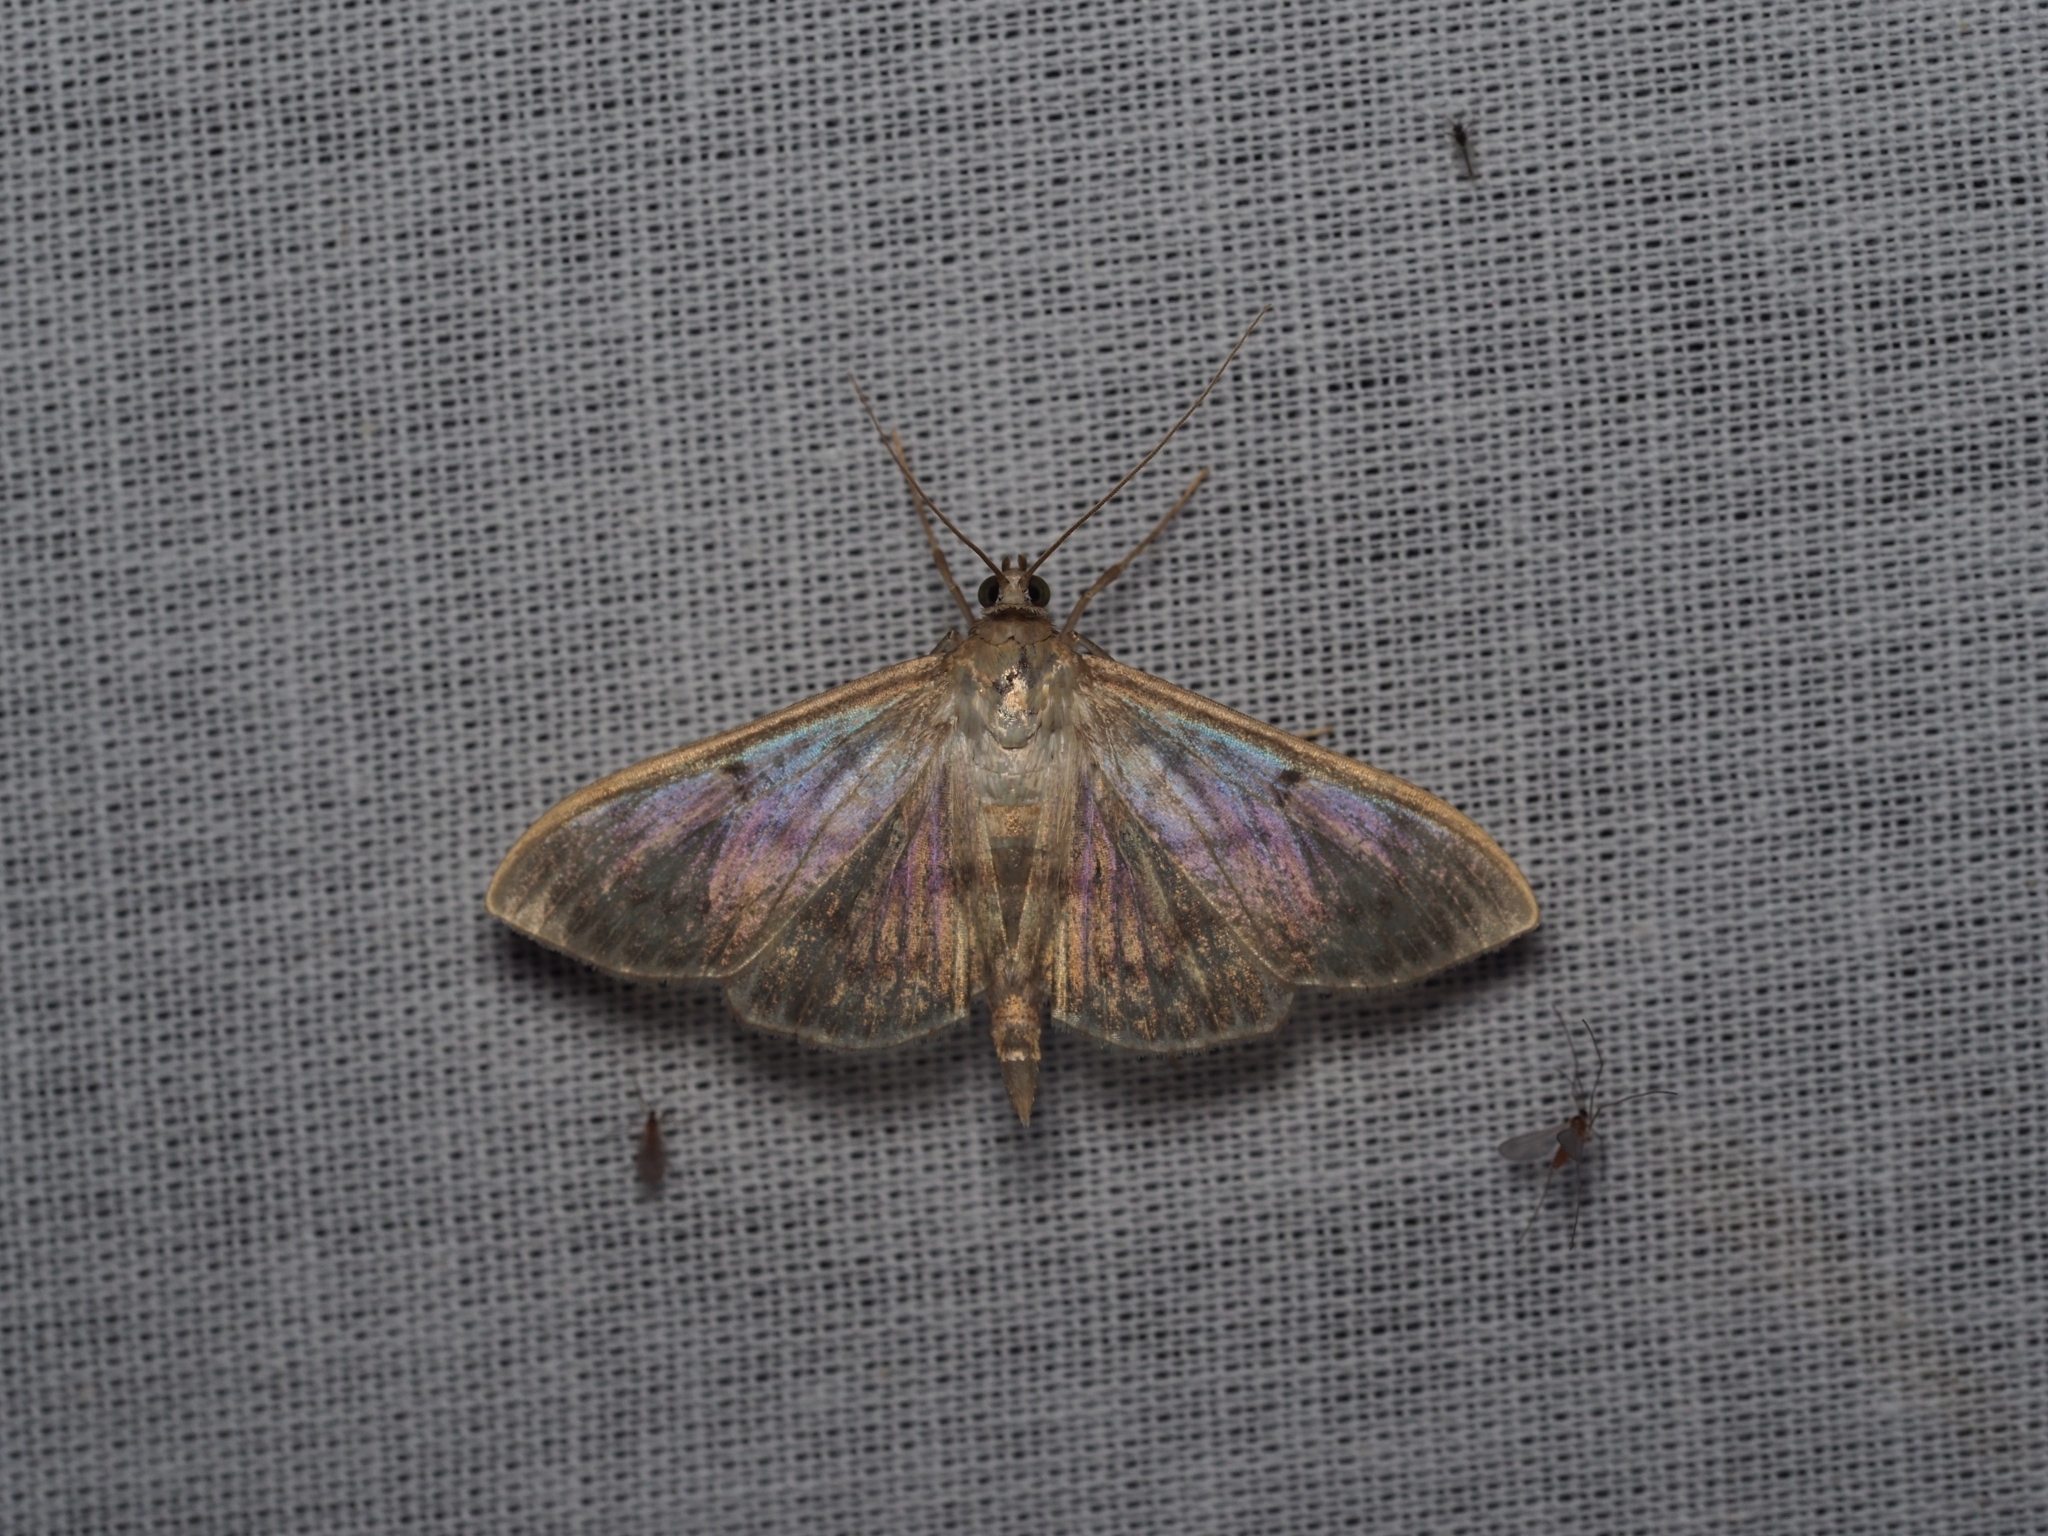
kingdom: Animalia
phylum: Arthropoda
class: Insecta
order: Lepidoptera
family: Crambidae
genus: Patania
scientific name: Patania ruralis
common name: Mother of pearl
